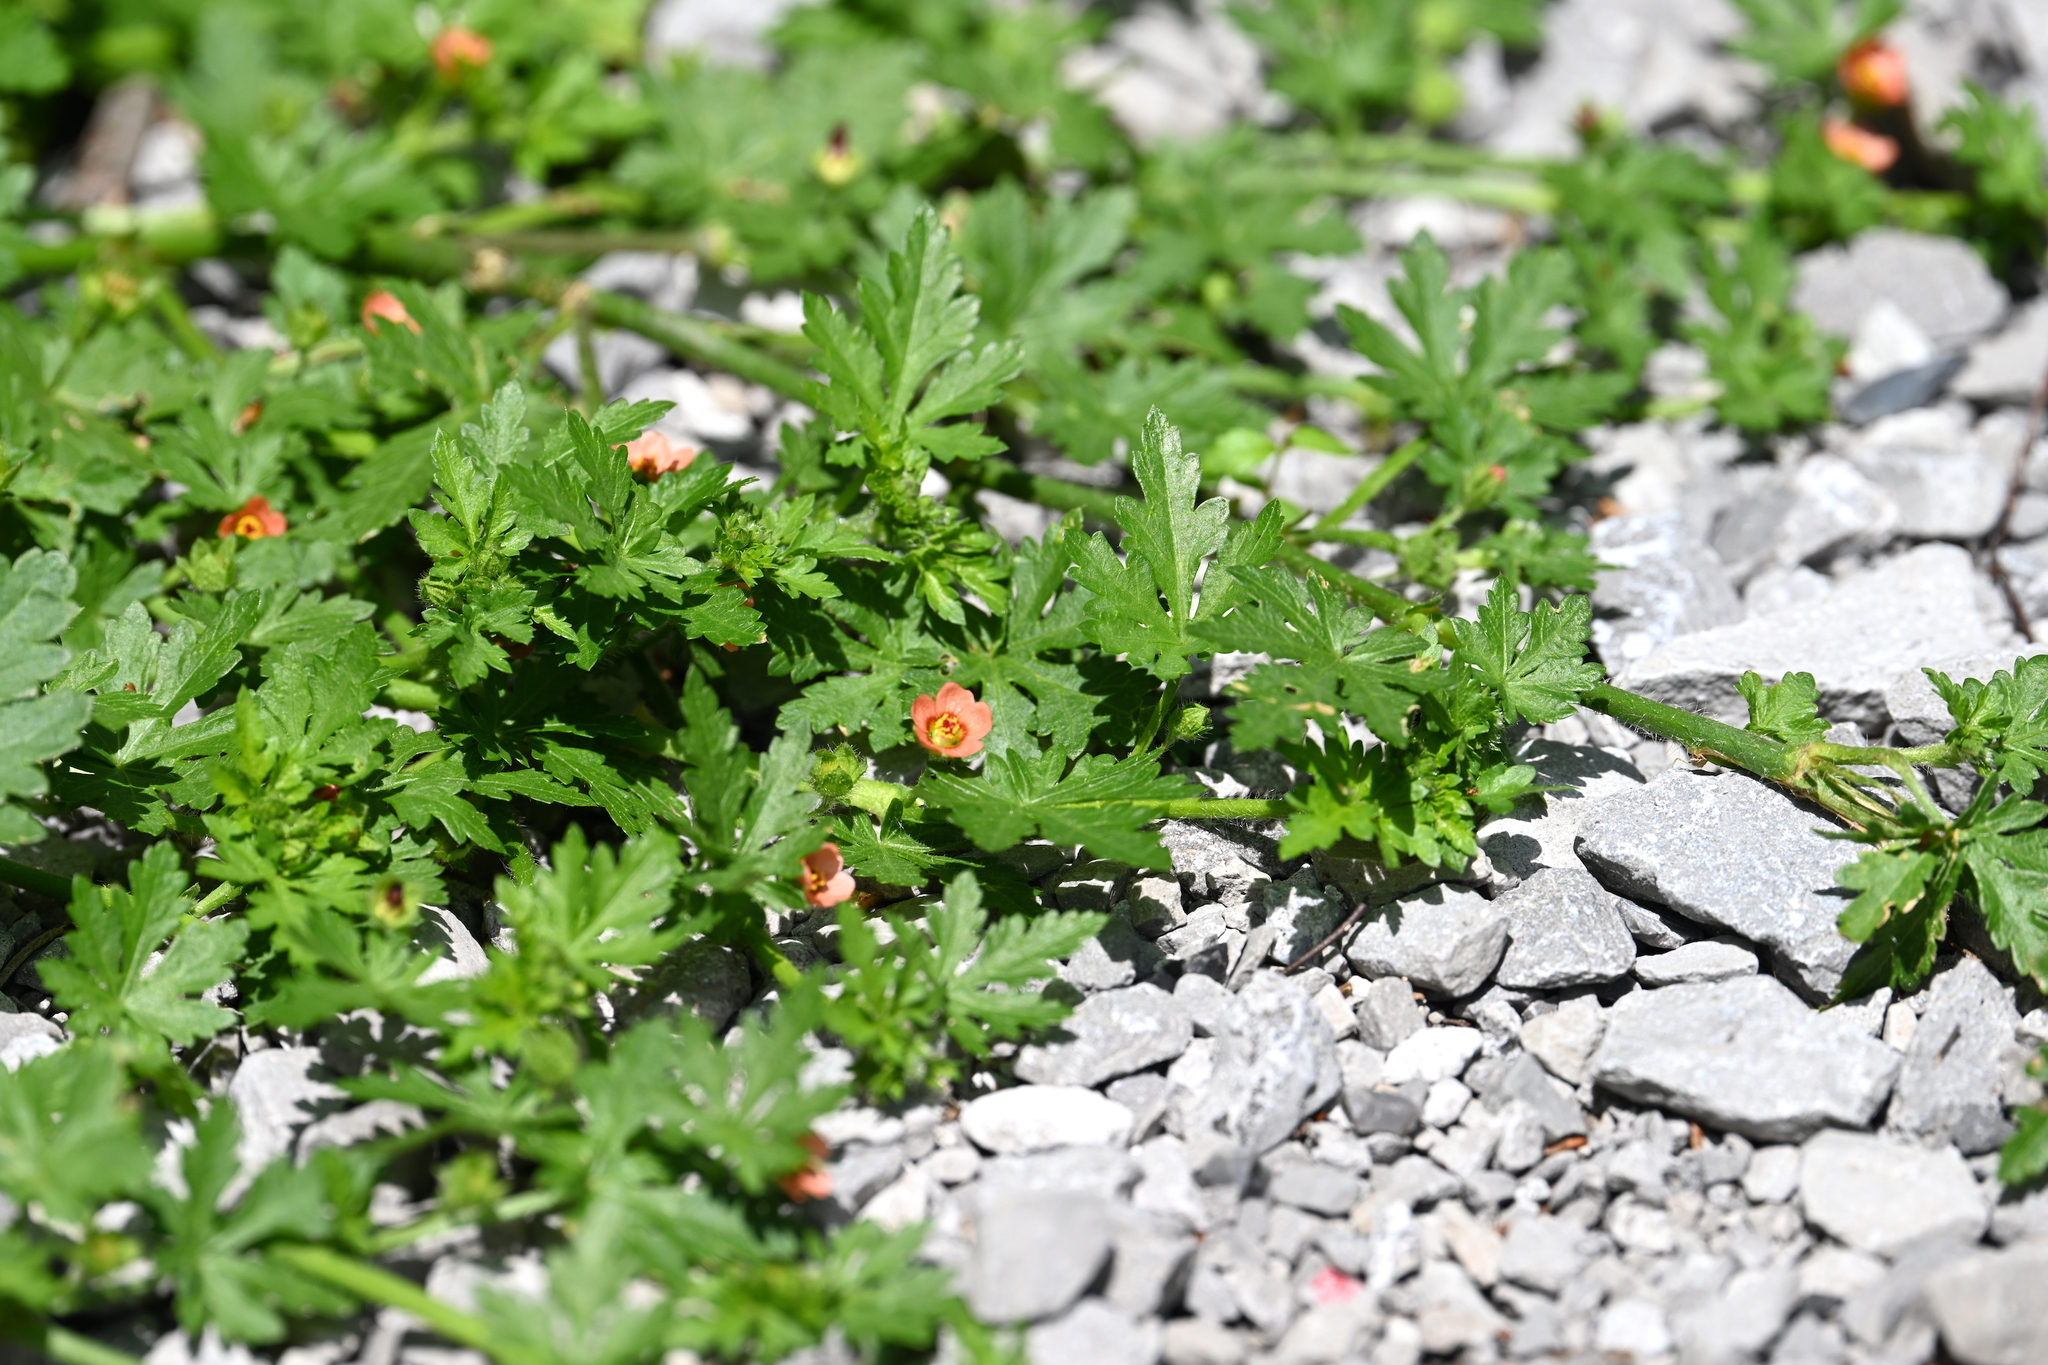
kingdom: Plantae
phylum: Tracheophyta
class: Magnoliopsida
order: Malvales
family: Malvaceae
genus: Modiola
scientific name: Modiola caroliniana
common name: Carolina bristlemallow
